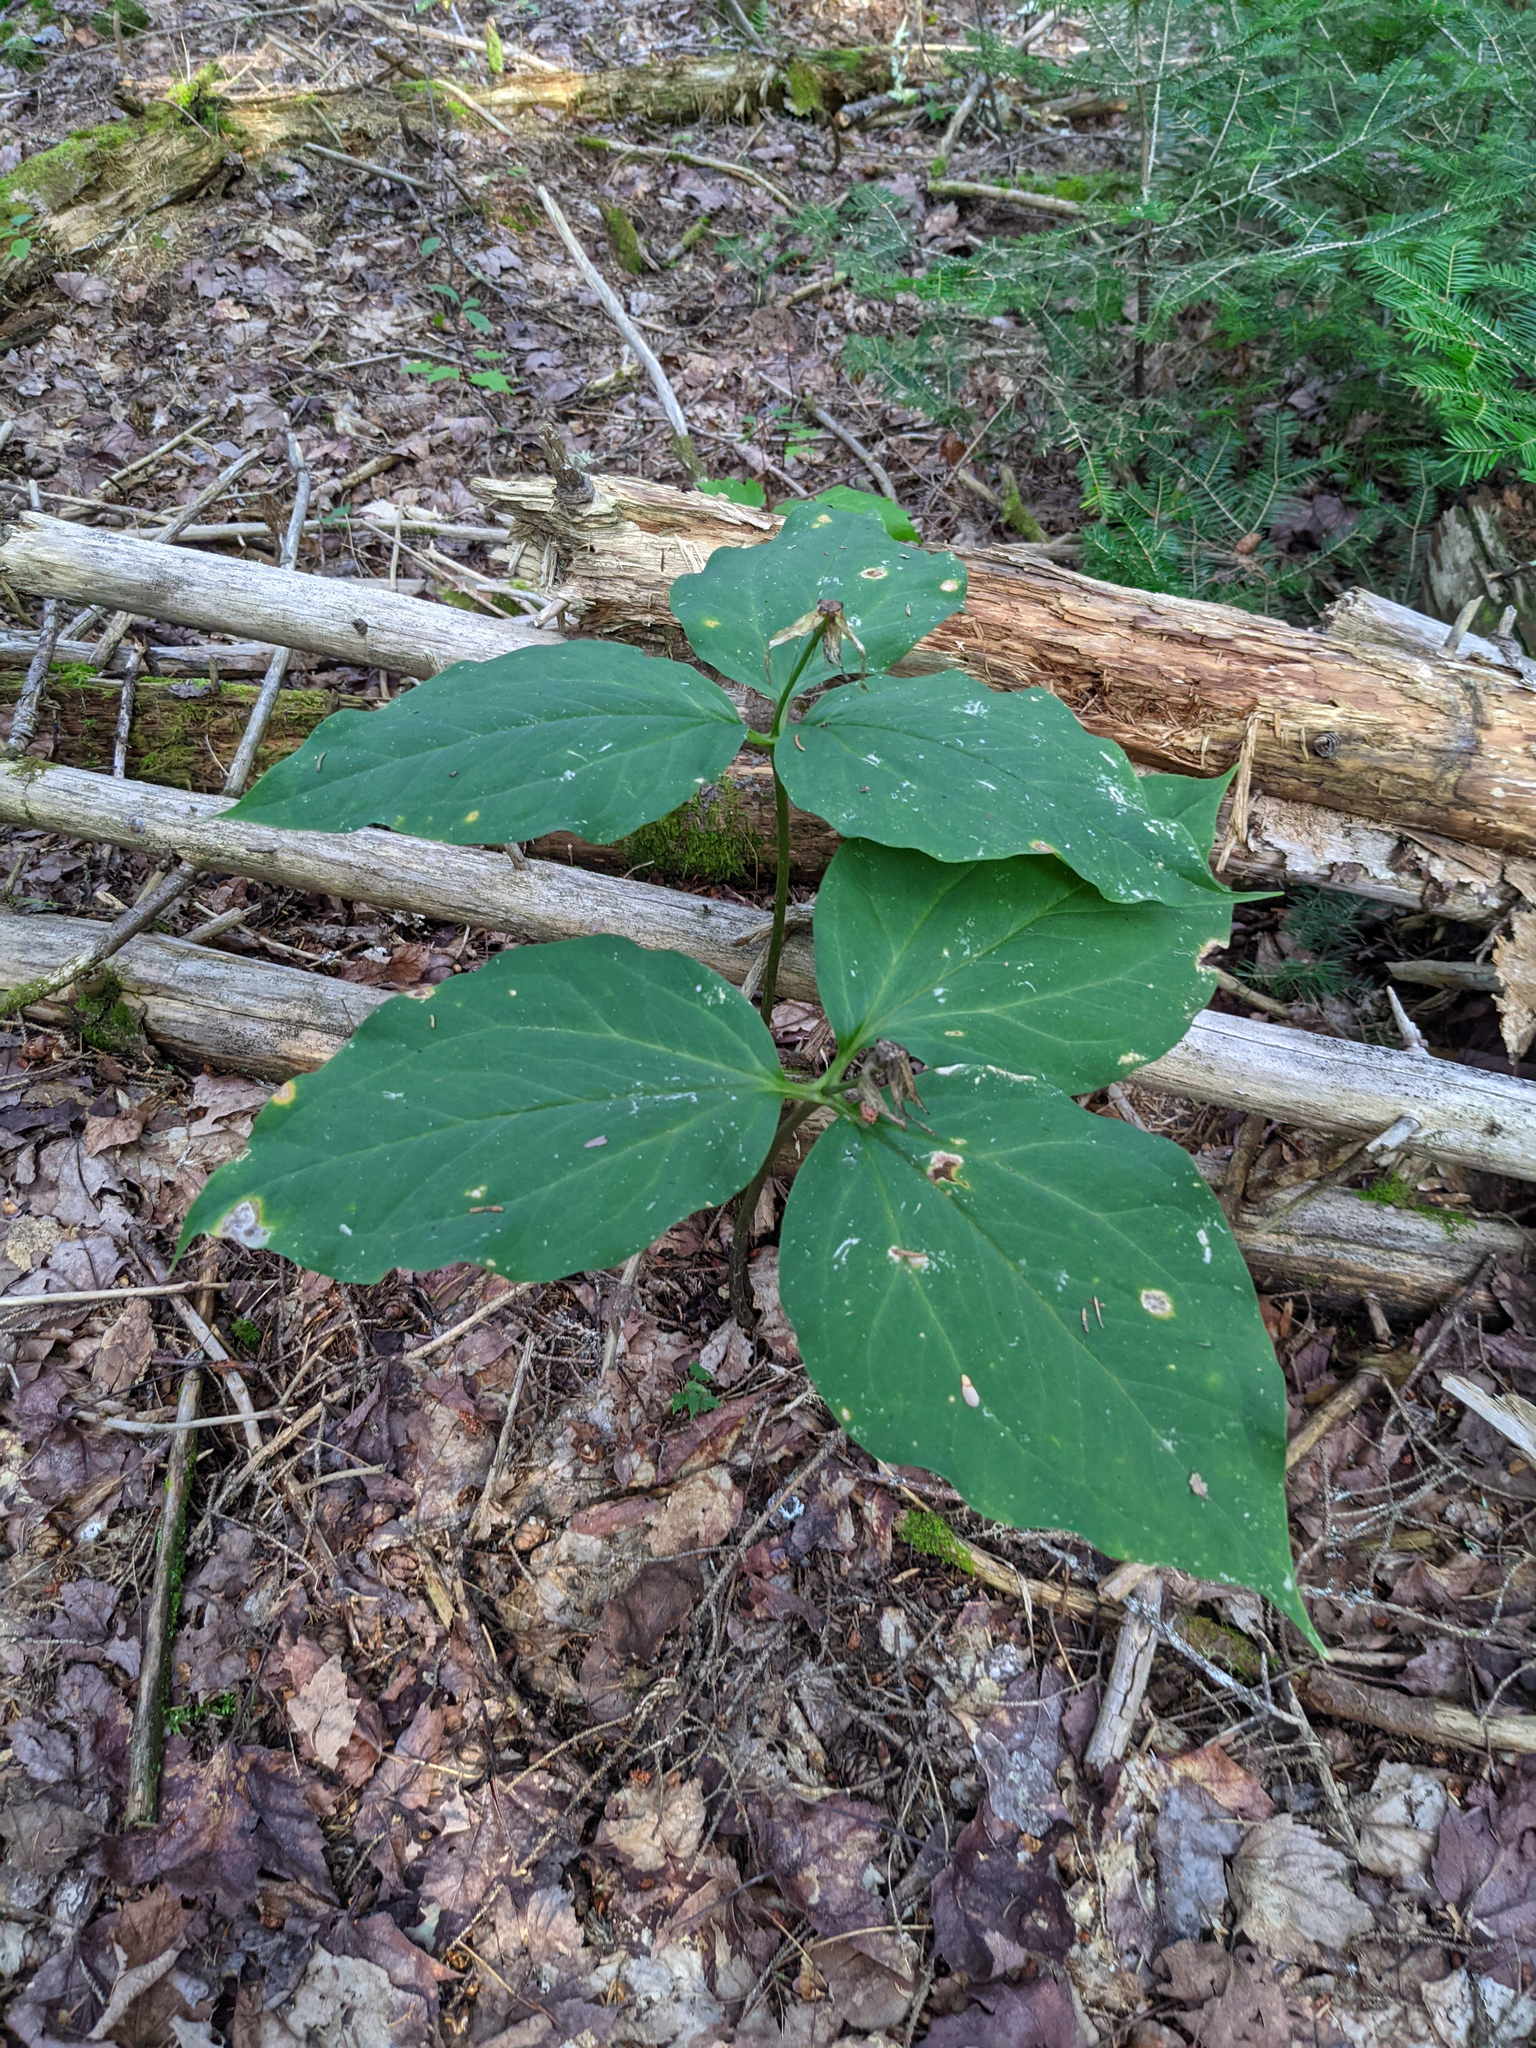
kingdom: Plantae
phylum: Tracheophyta
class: Liliopsida
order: Liliales
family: Melanthiaceae
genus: Trillium
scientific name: Trillium undulatum
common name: Paint trillium
